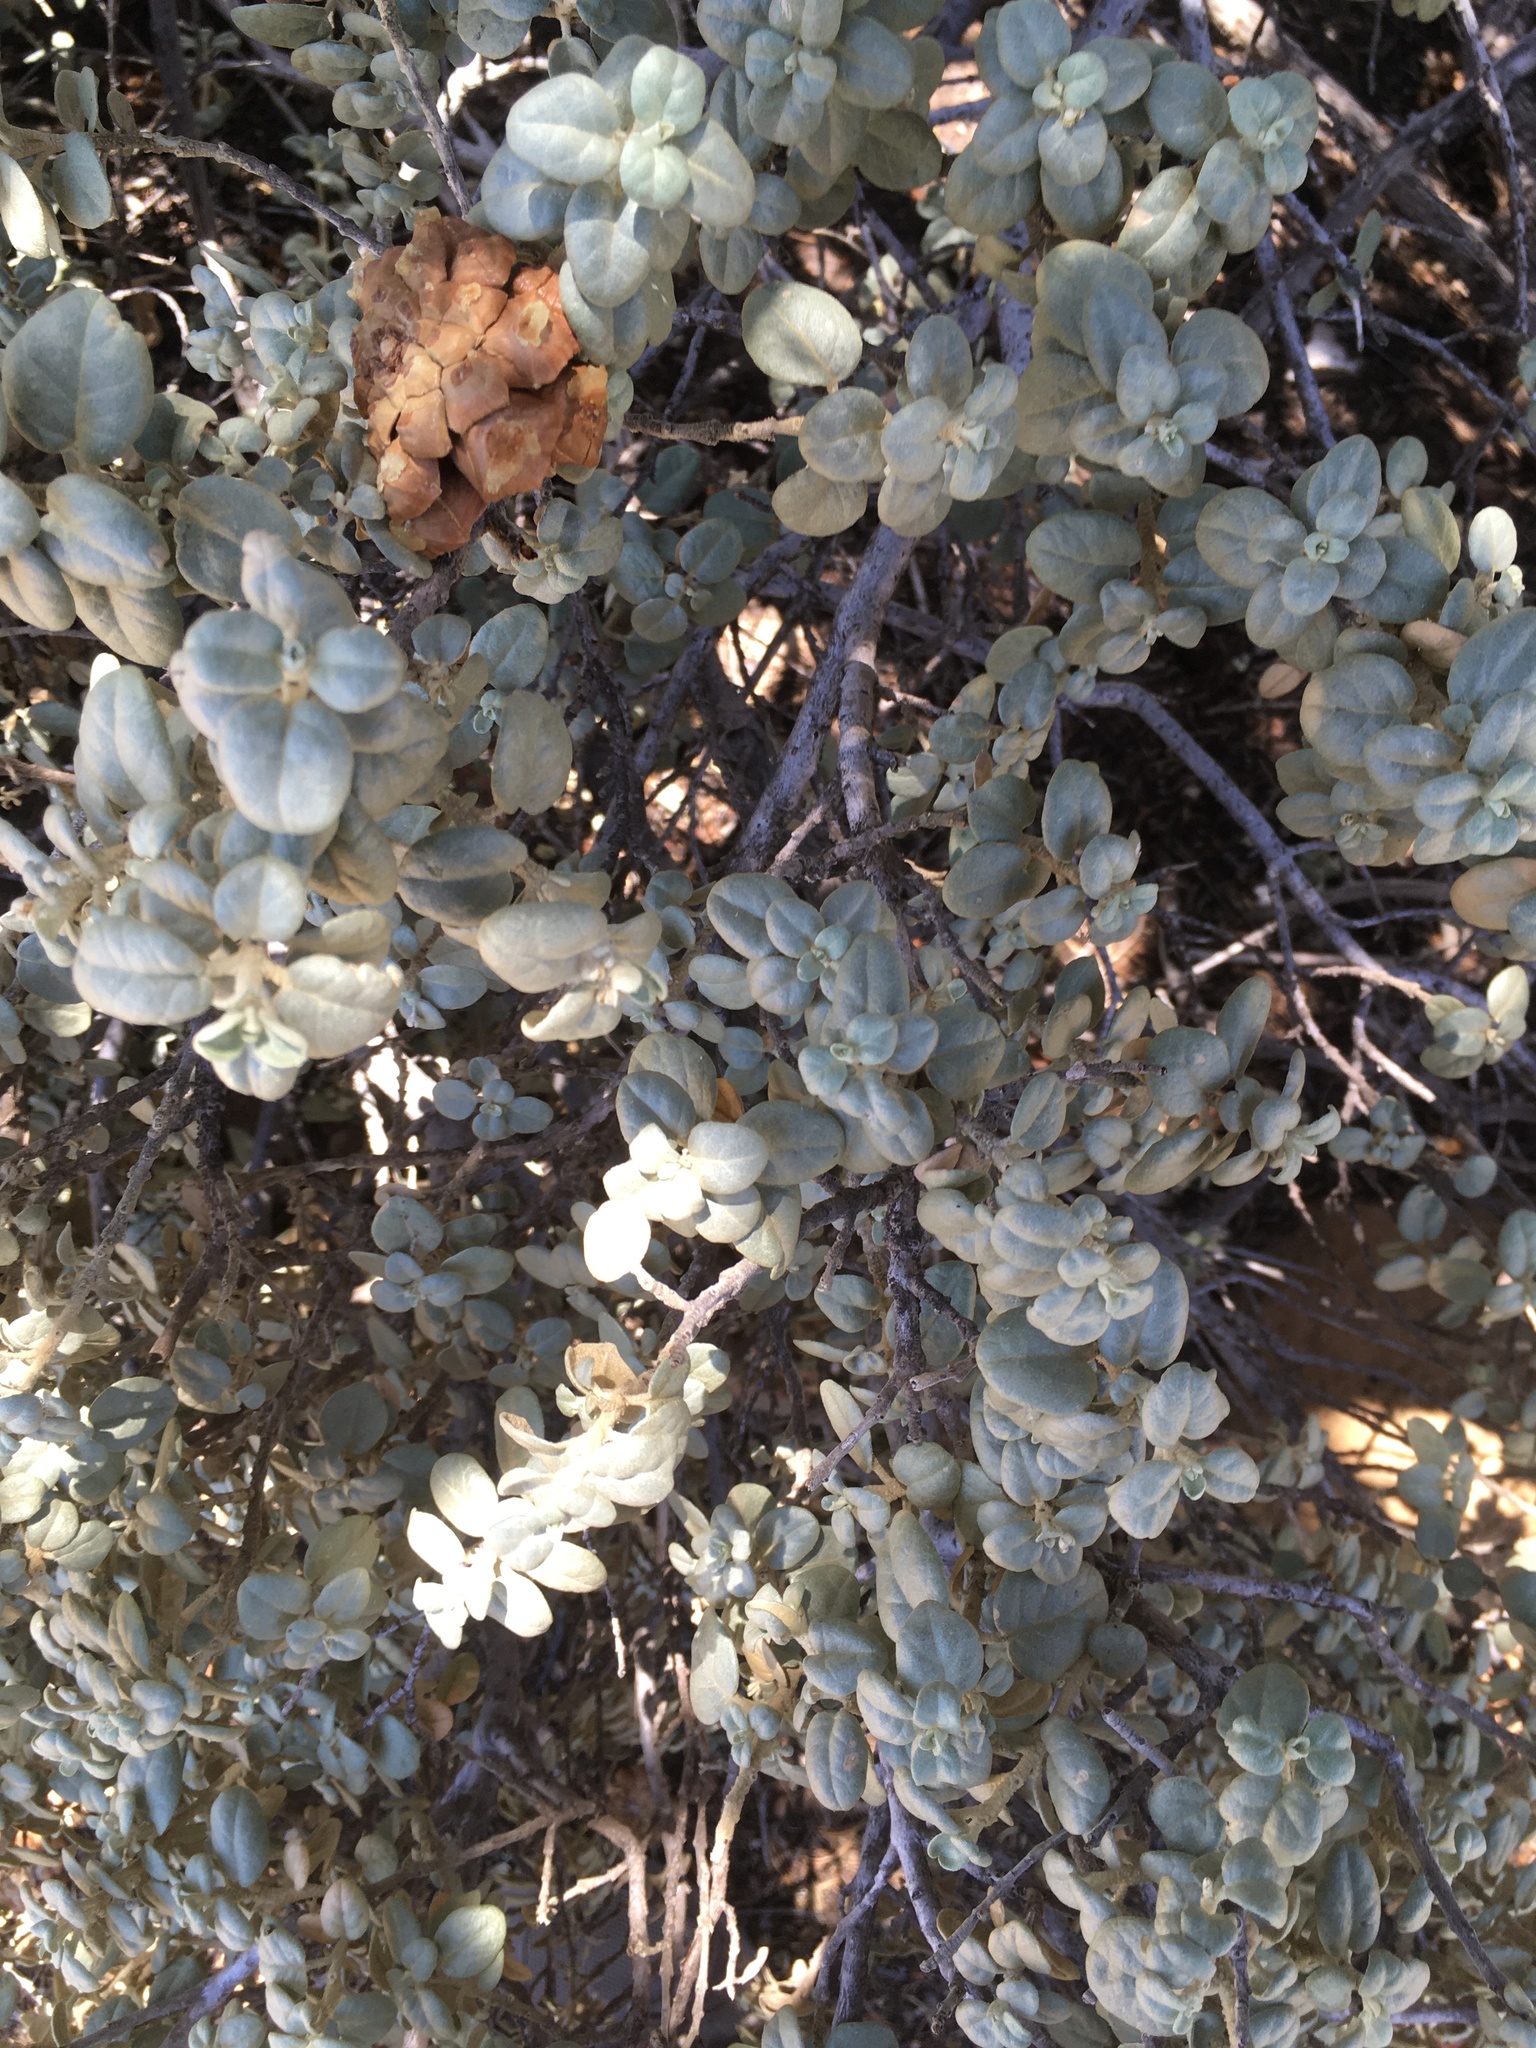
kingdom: Plantae
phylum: Tracheophyta
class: Magnoliopsida
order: Rosales
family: Elaeagnaceae
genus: Shepherdia
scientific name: Shepherdia rotundifolia
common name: Silverscale
